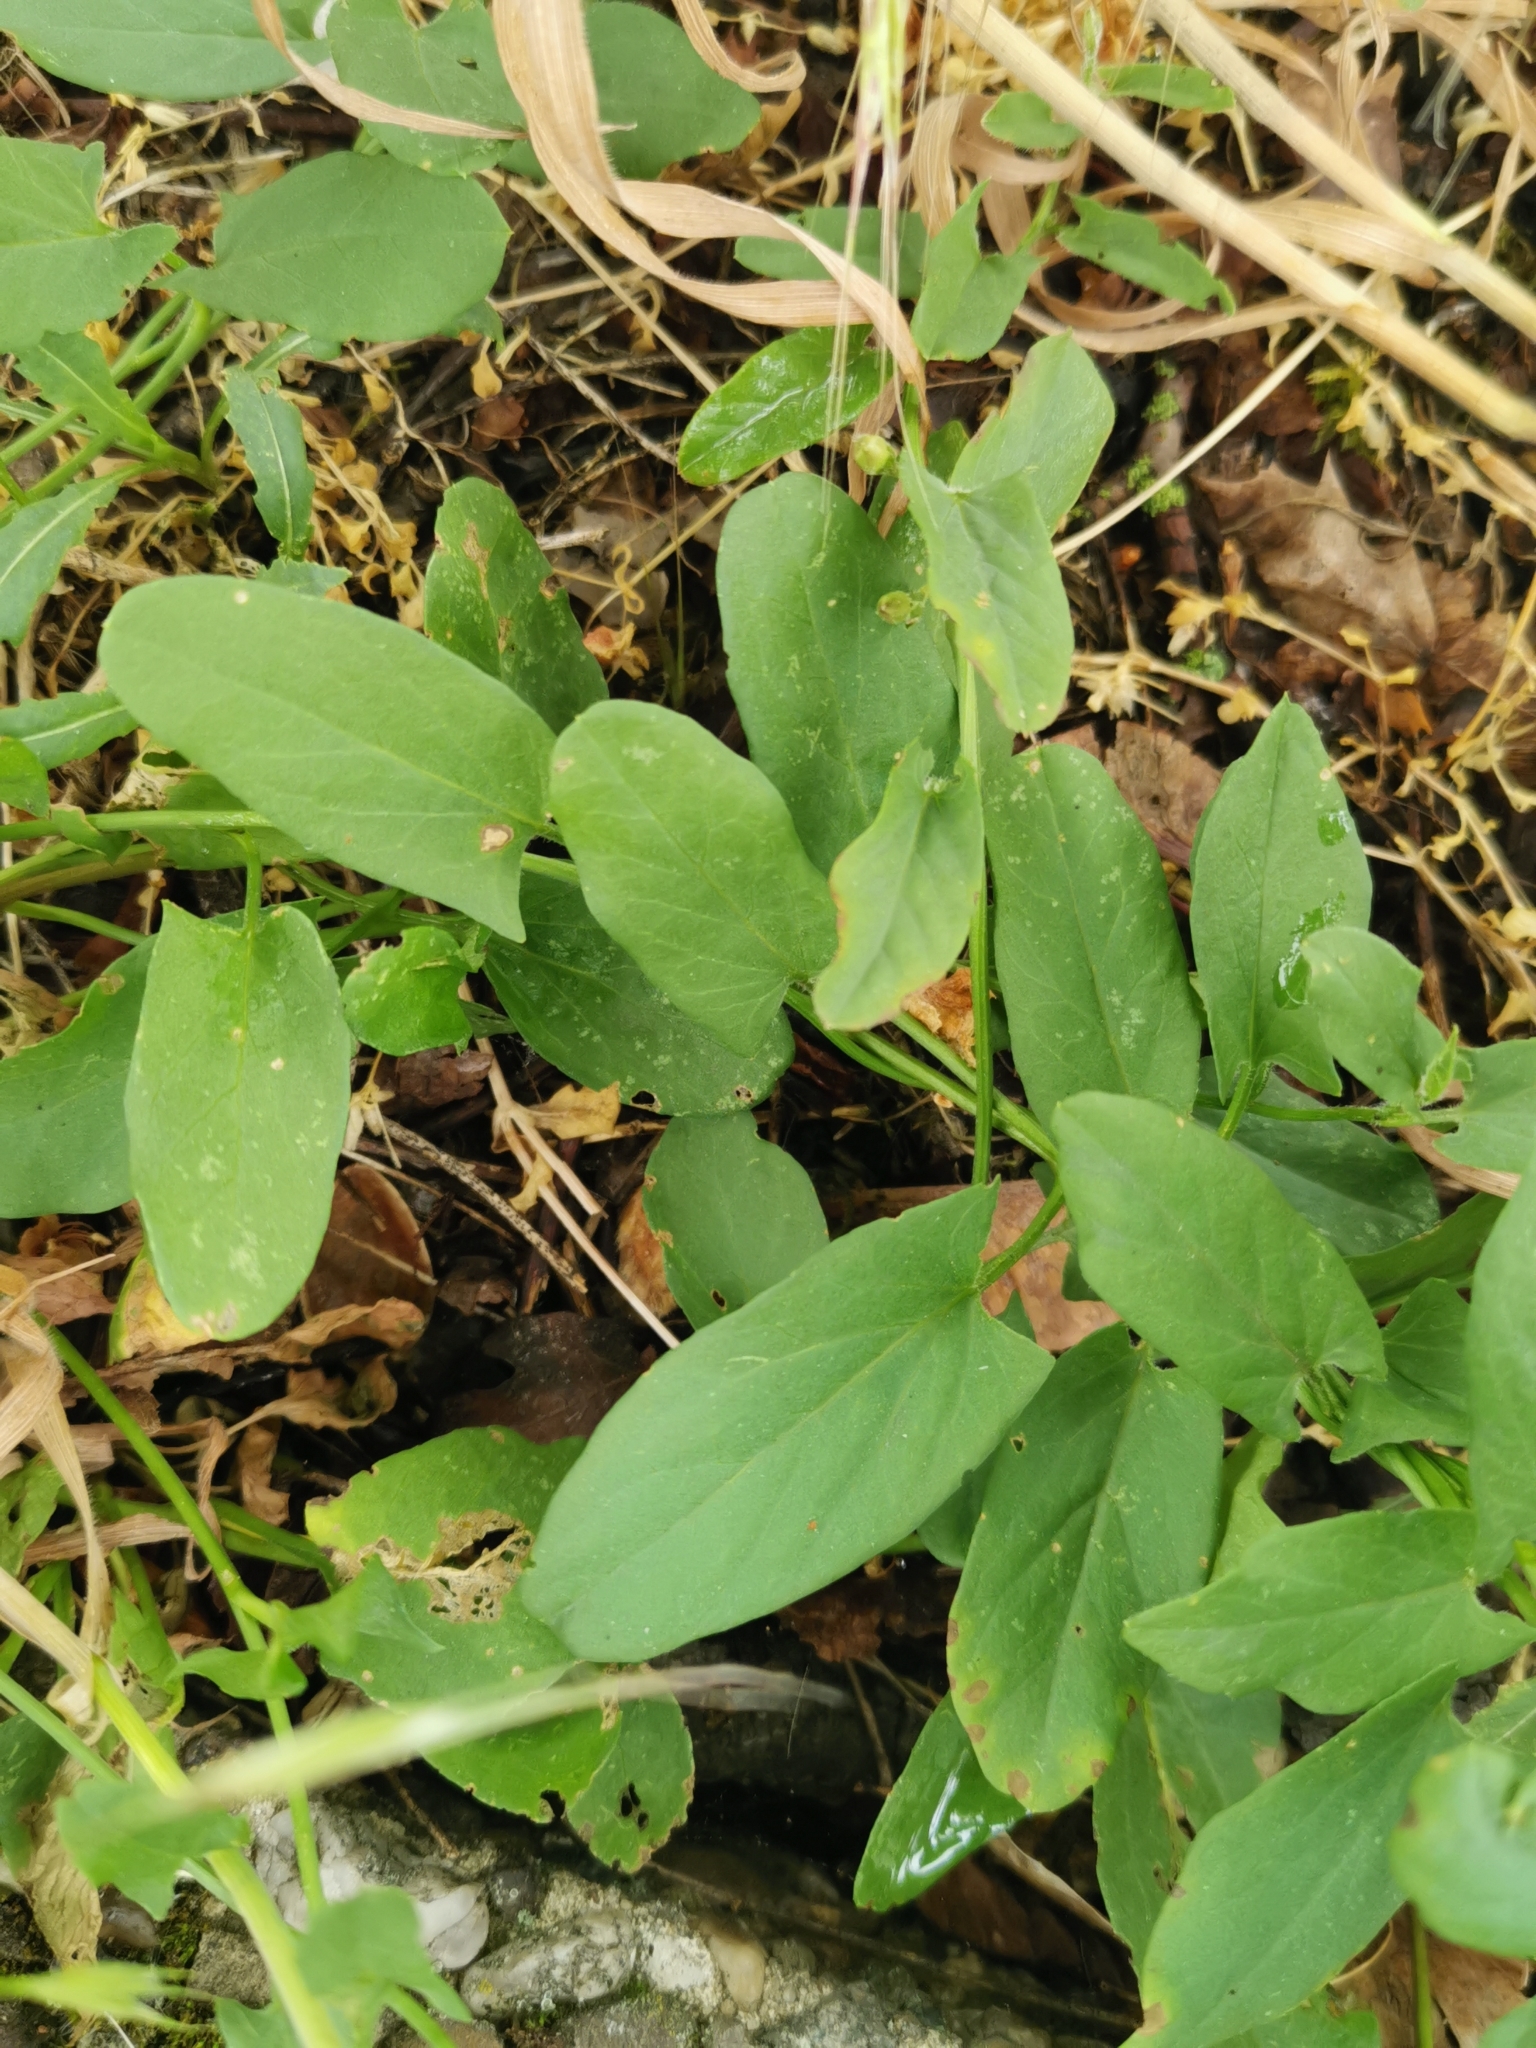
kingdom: Plantae
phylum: Tracheophyta
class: Magnoliopsida
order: Solanales
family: Convolvulaceae
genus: Convolvulus
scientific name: Convolvulus arvensis
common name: Field bindweed
